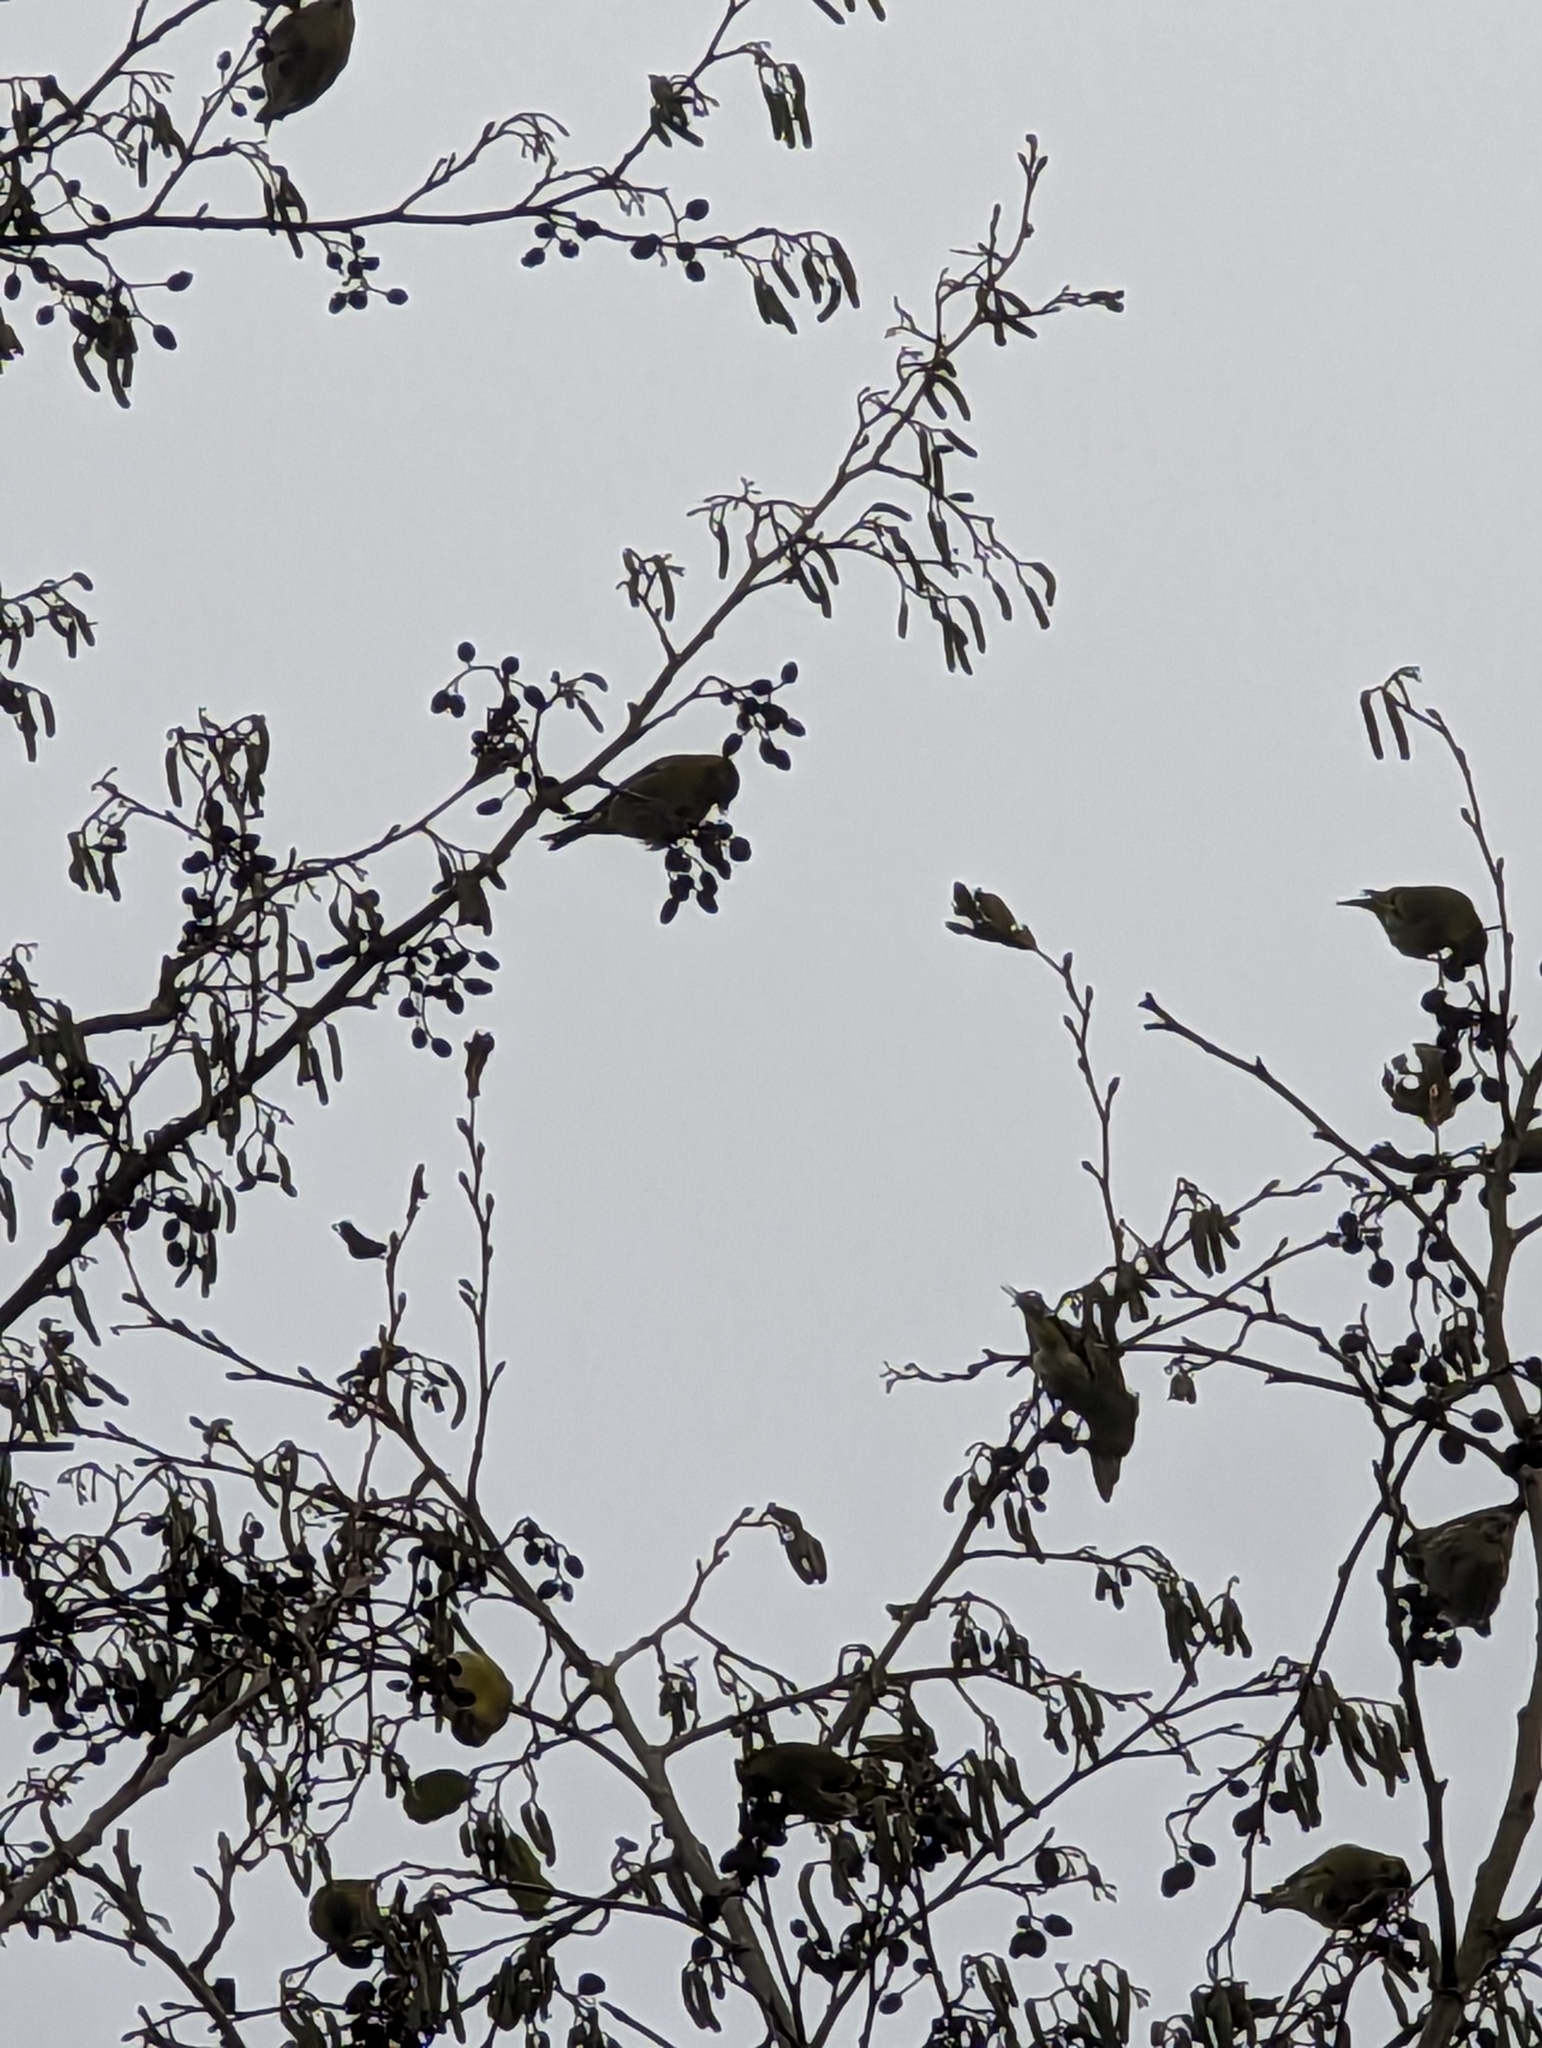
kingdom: Animalia
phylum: Chordata
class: Aves
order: Passeriformes
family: Fringillidae
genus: Spinus
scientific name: Spinus spinus
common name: Eurasian siskin
